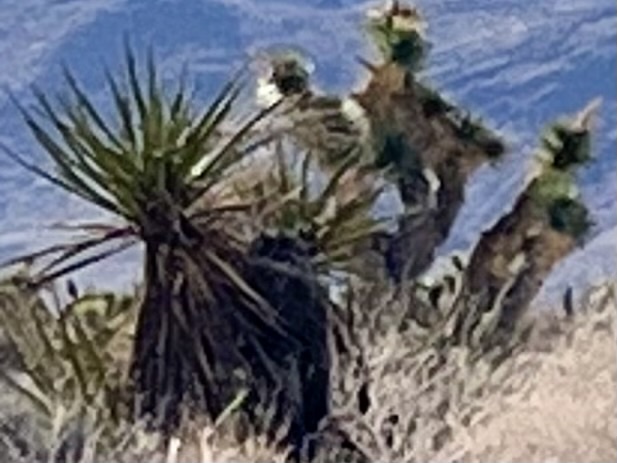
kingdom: Plantae
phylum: Tracheophyta
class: Liliopsida
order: Asparagales
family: Asparagaceae
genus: Yucca
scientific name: Yucca schidigera
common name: Mojave yucca
